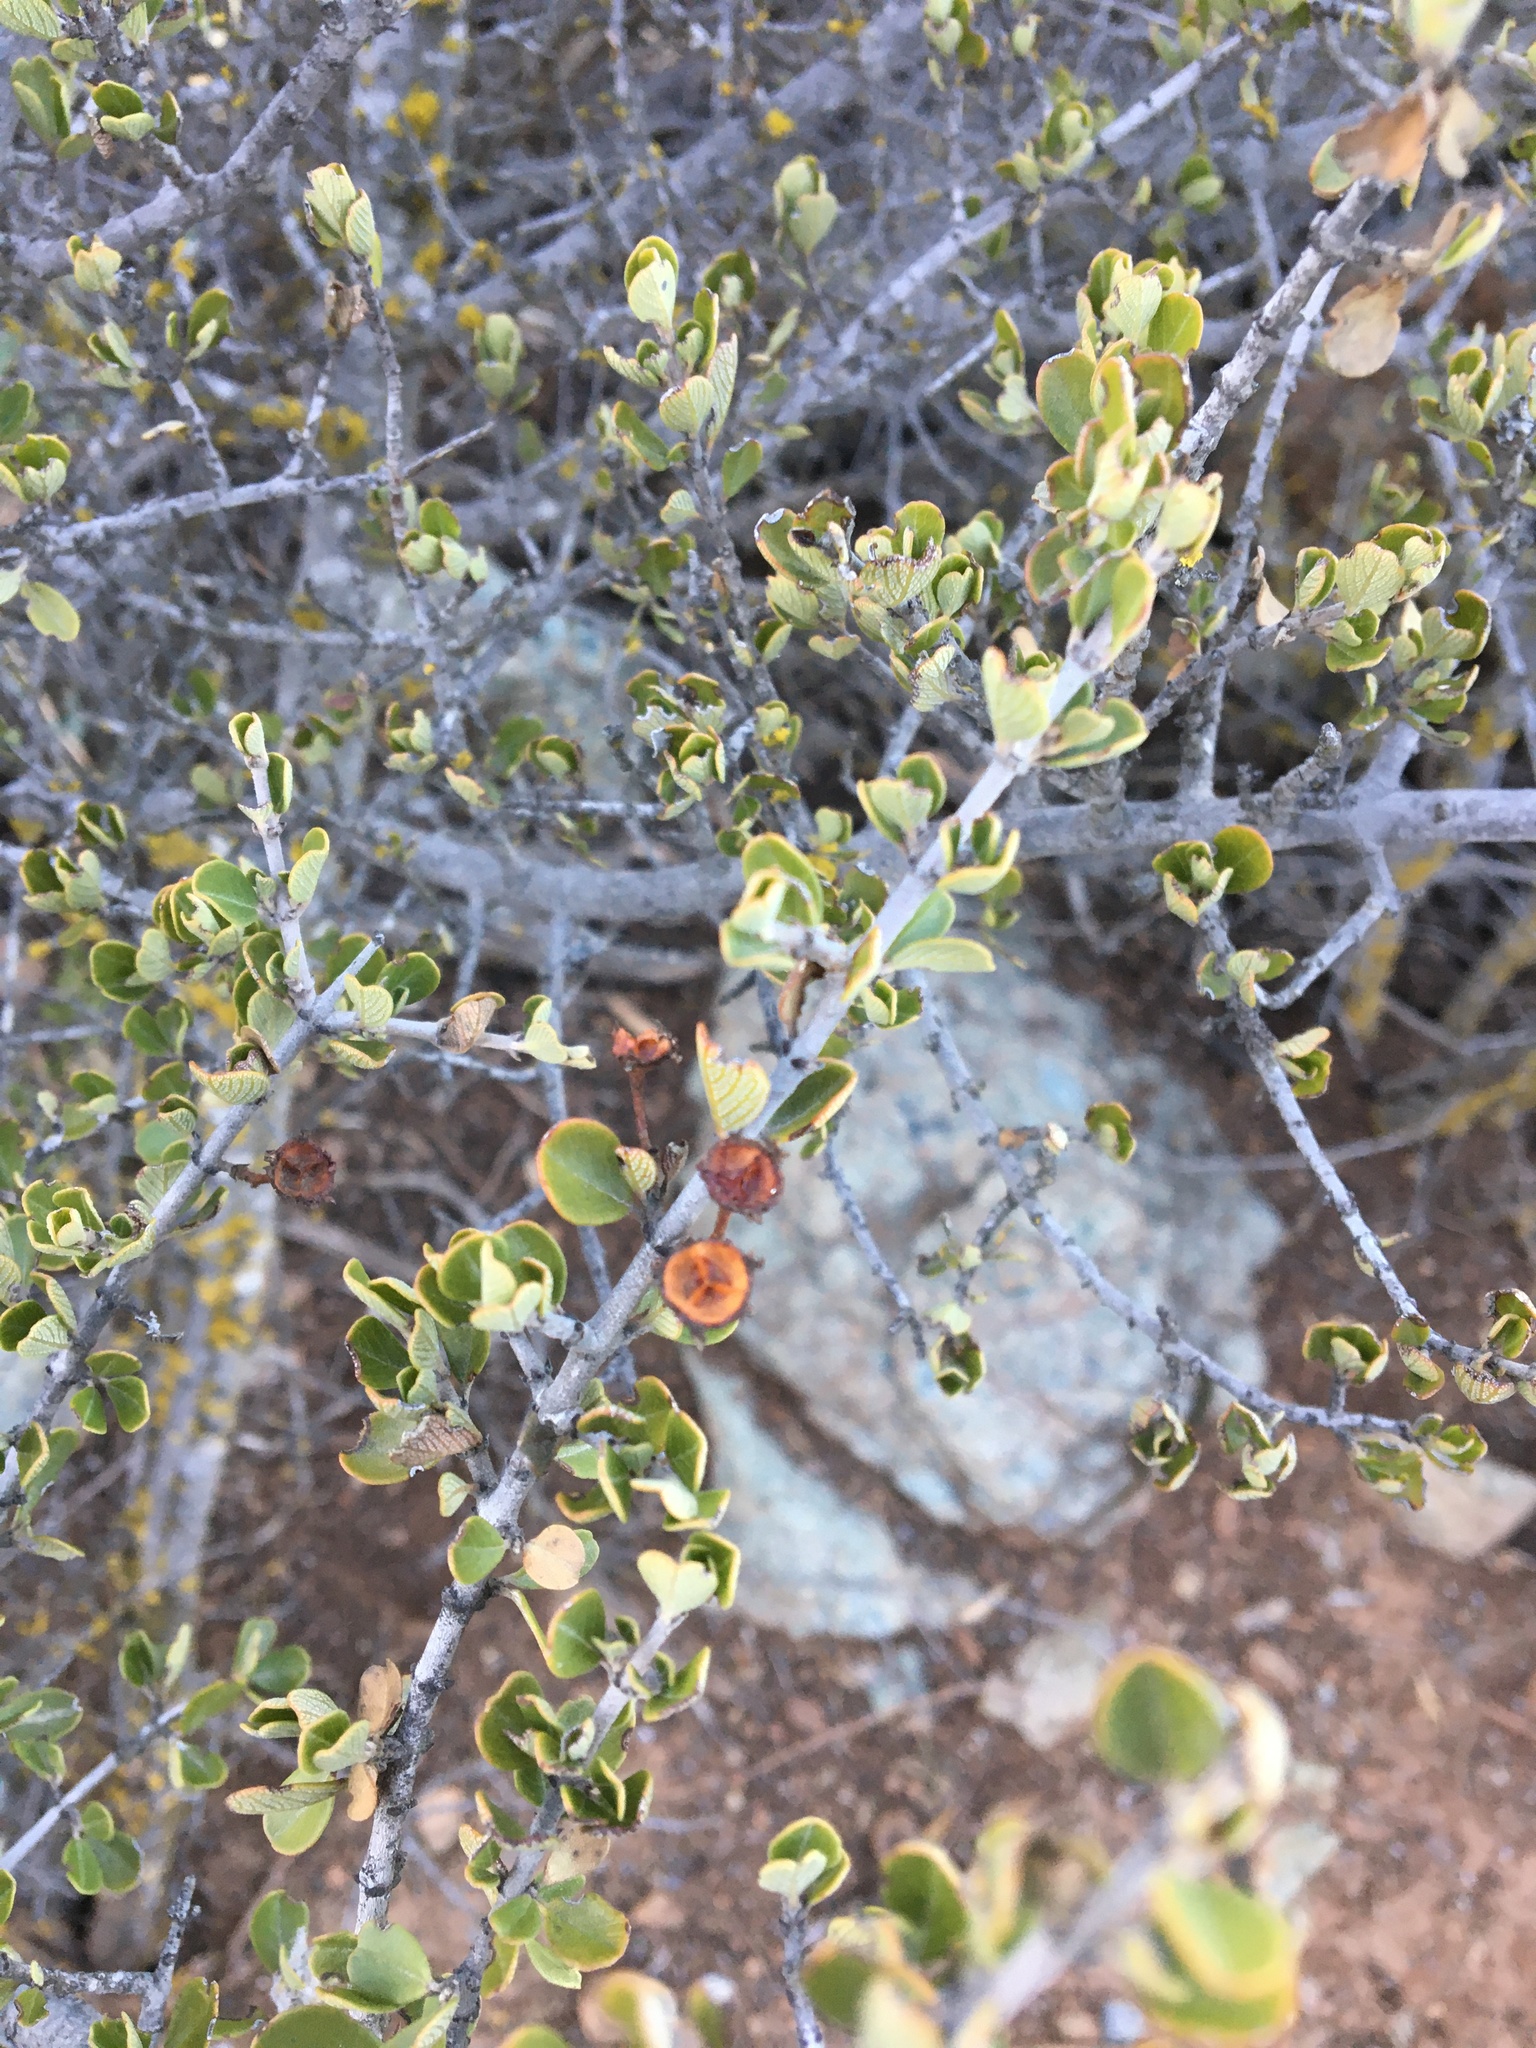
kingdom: Plantae
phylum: Tracheophyta
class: Magnoliopsida
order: Rosales
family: Rhamnaceae
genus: Ceanothus
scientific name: Ceanothus cuneatus
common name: Cuneate ceanothus
